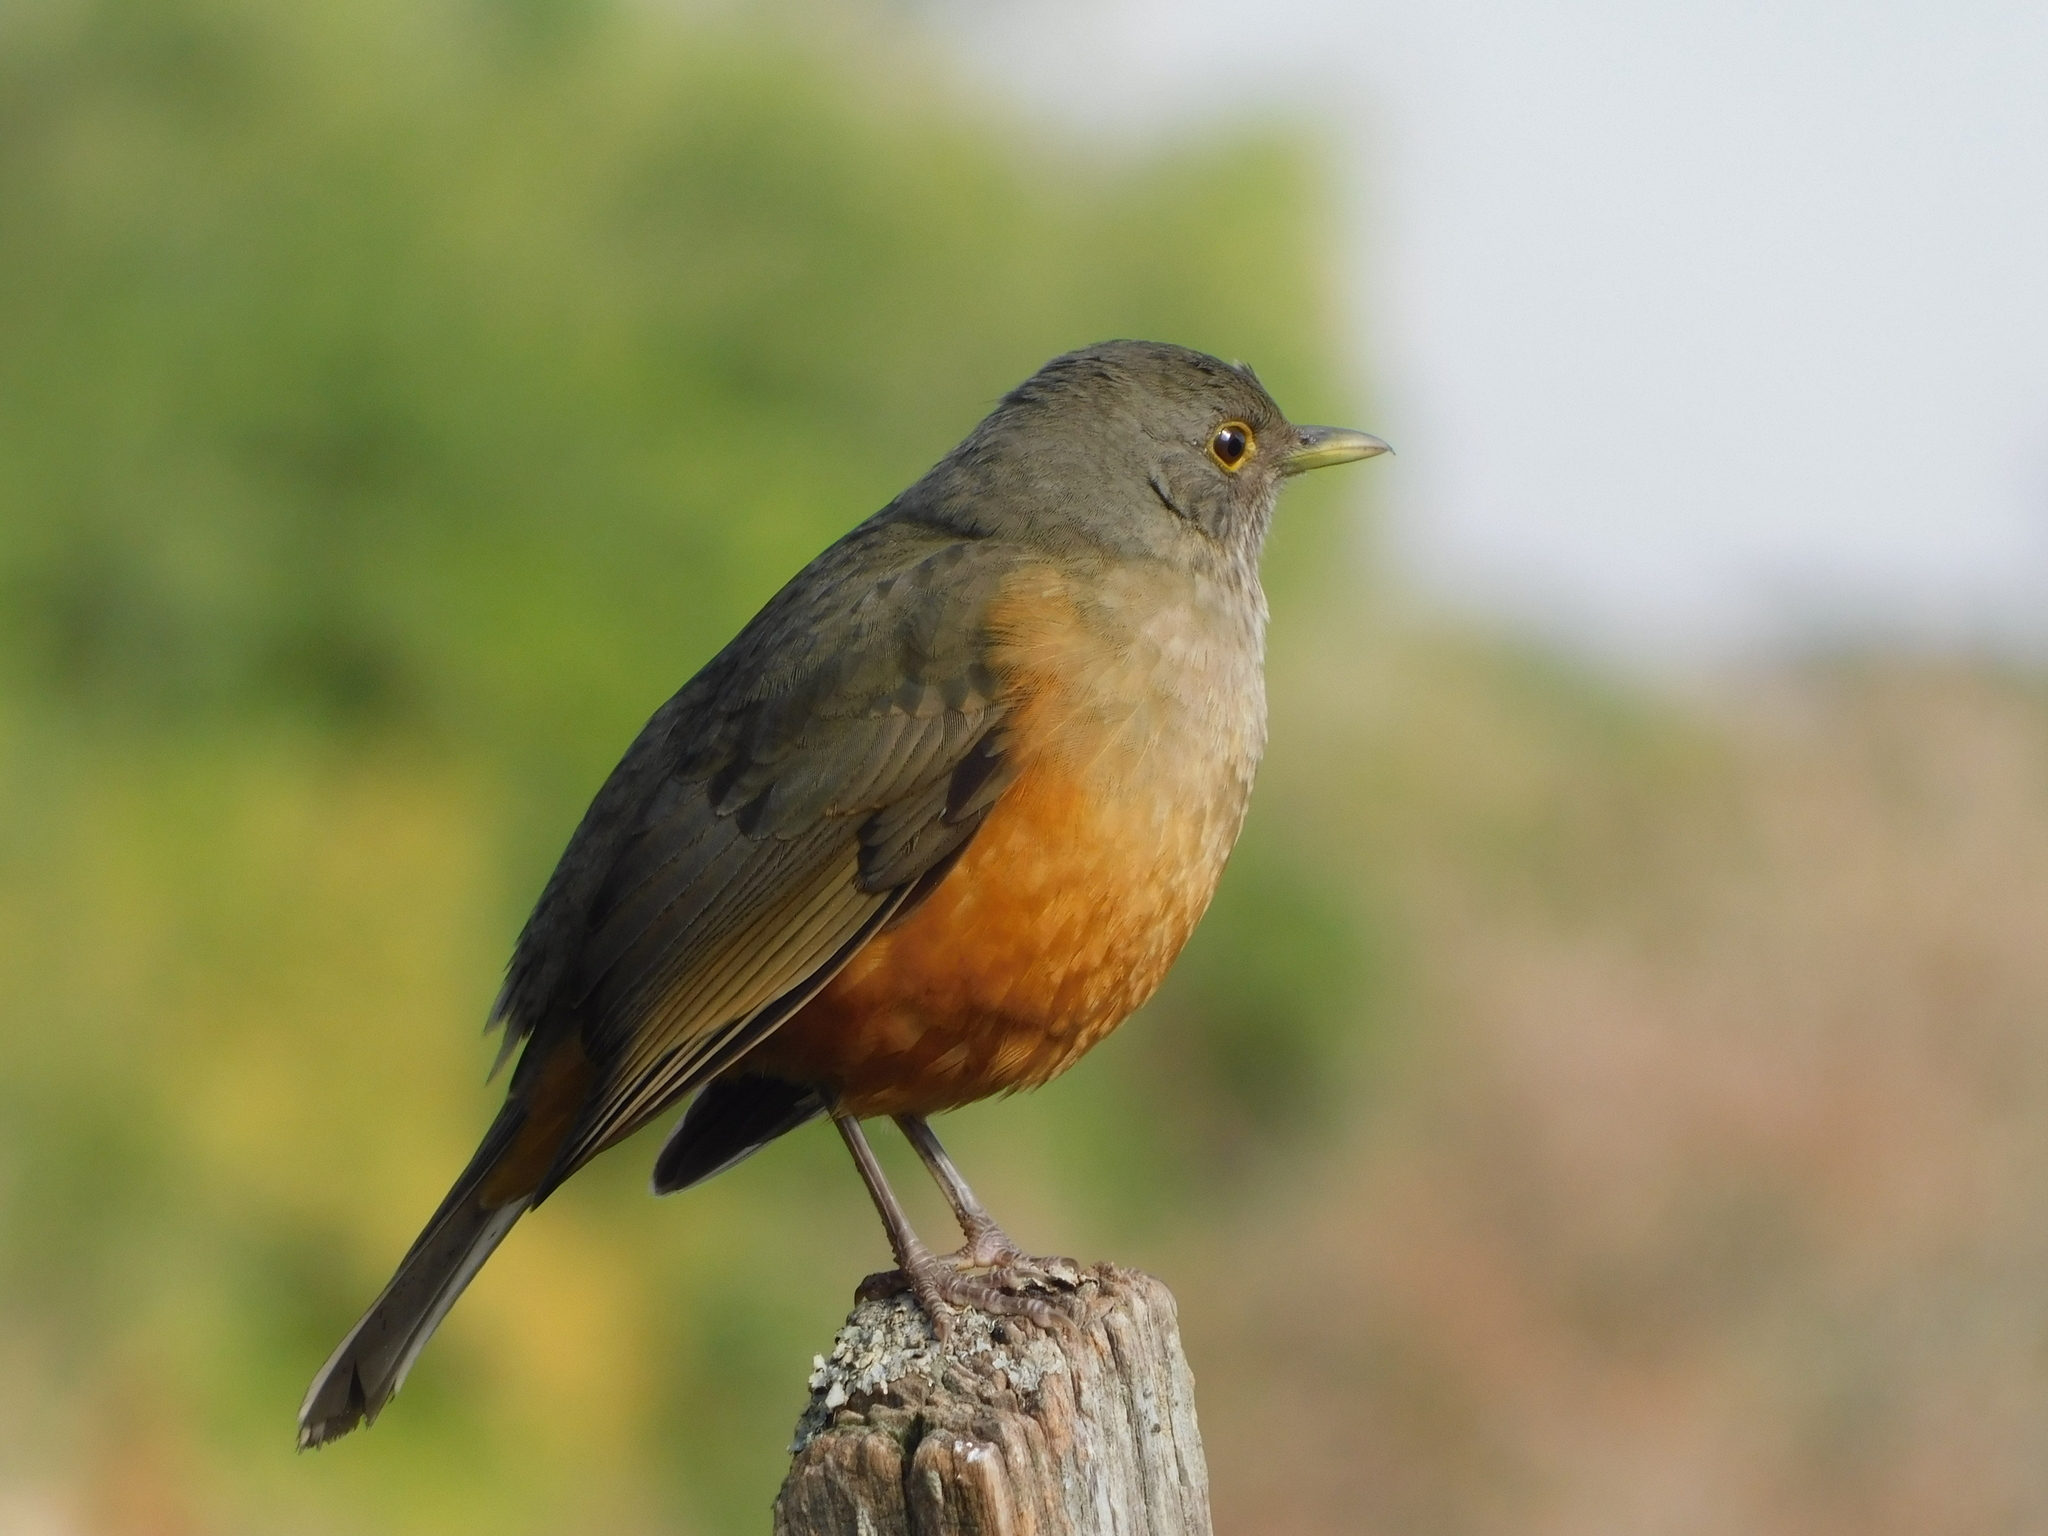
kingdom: Animalia
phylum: Chordata
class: Aves
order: Passeriformes
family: Turdidae
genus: Turdus
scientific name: Turdus rufiventris
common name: Rufous-bellied thrush
